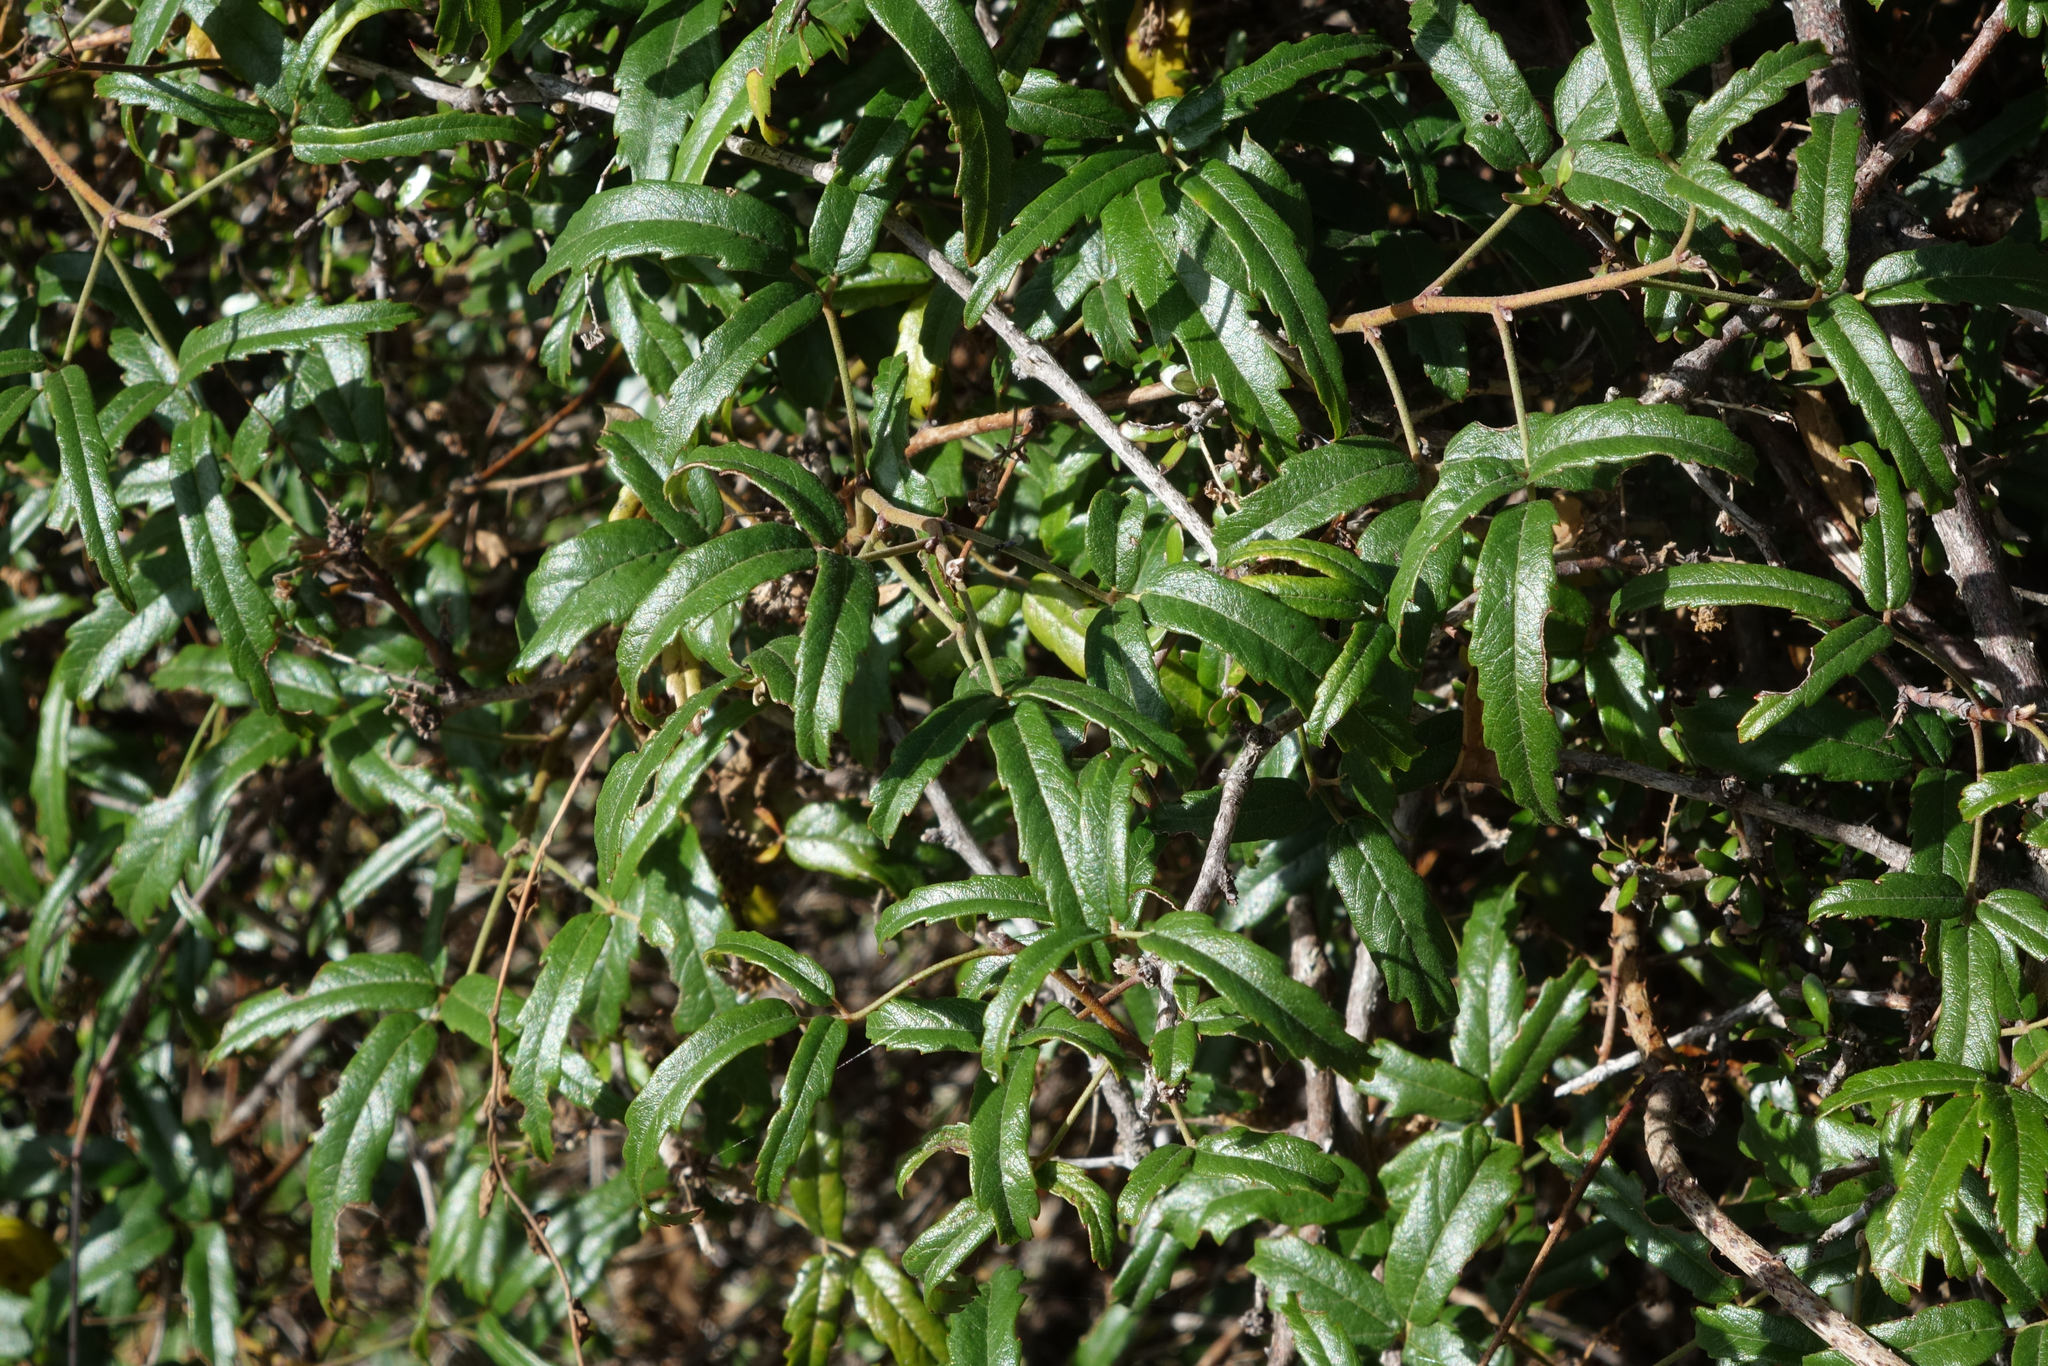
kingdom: Plantae
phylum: Tracheophyta
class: Magnoliopsida
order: Rosales
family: Rosaceae
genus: Rubus
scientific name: Rubus schmidelioides
